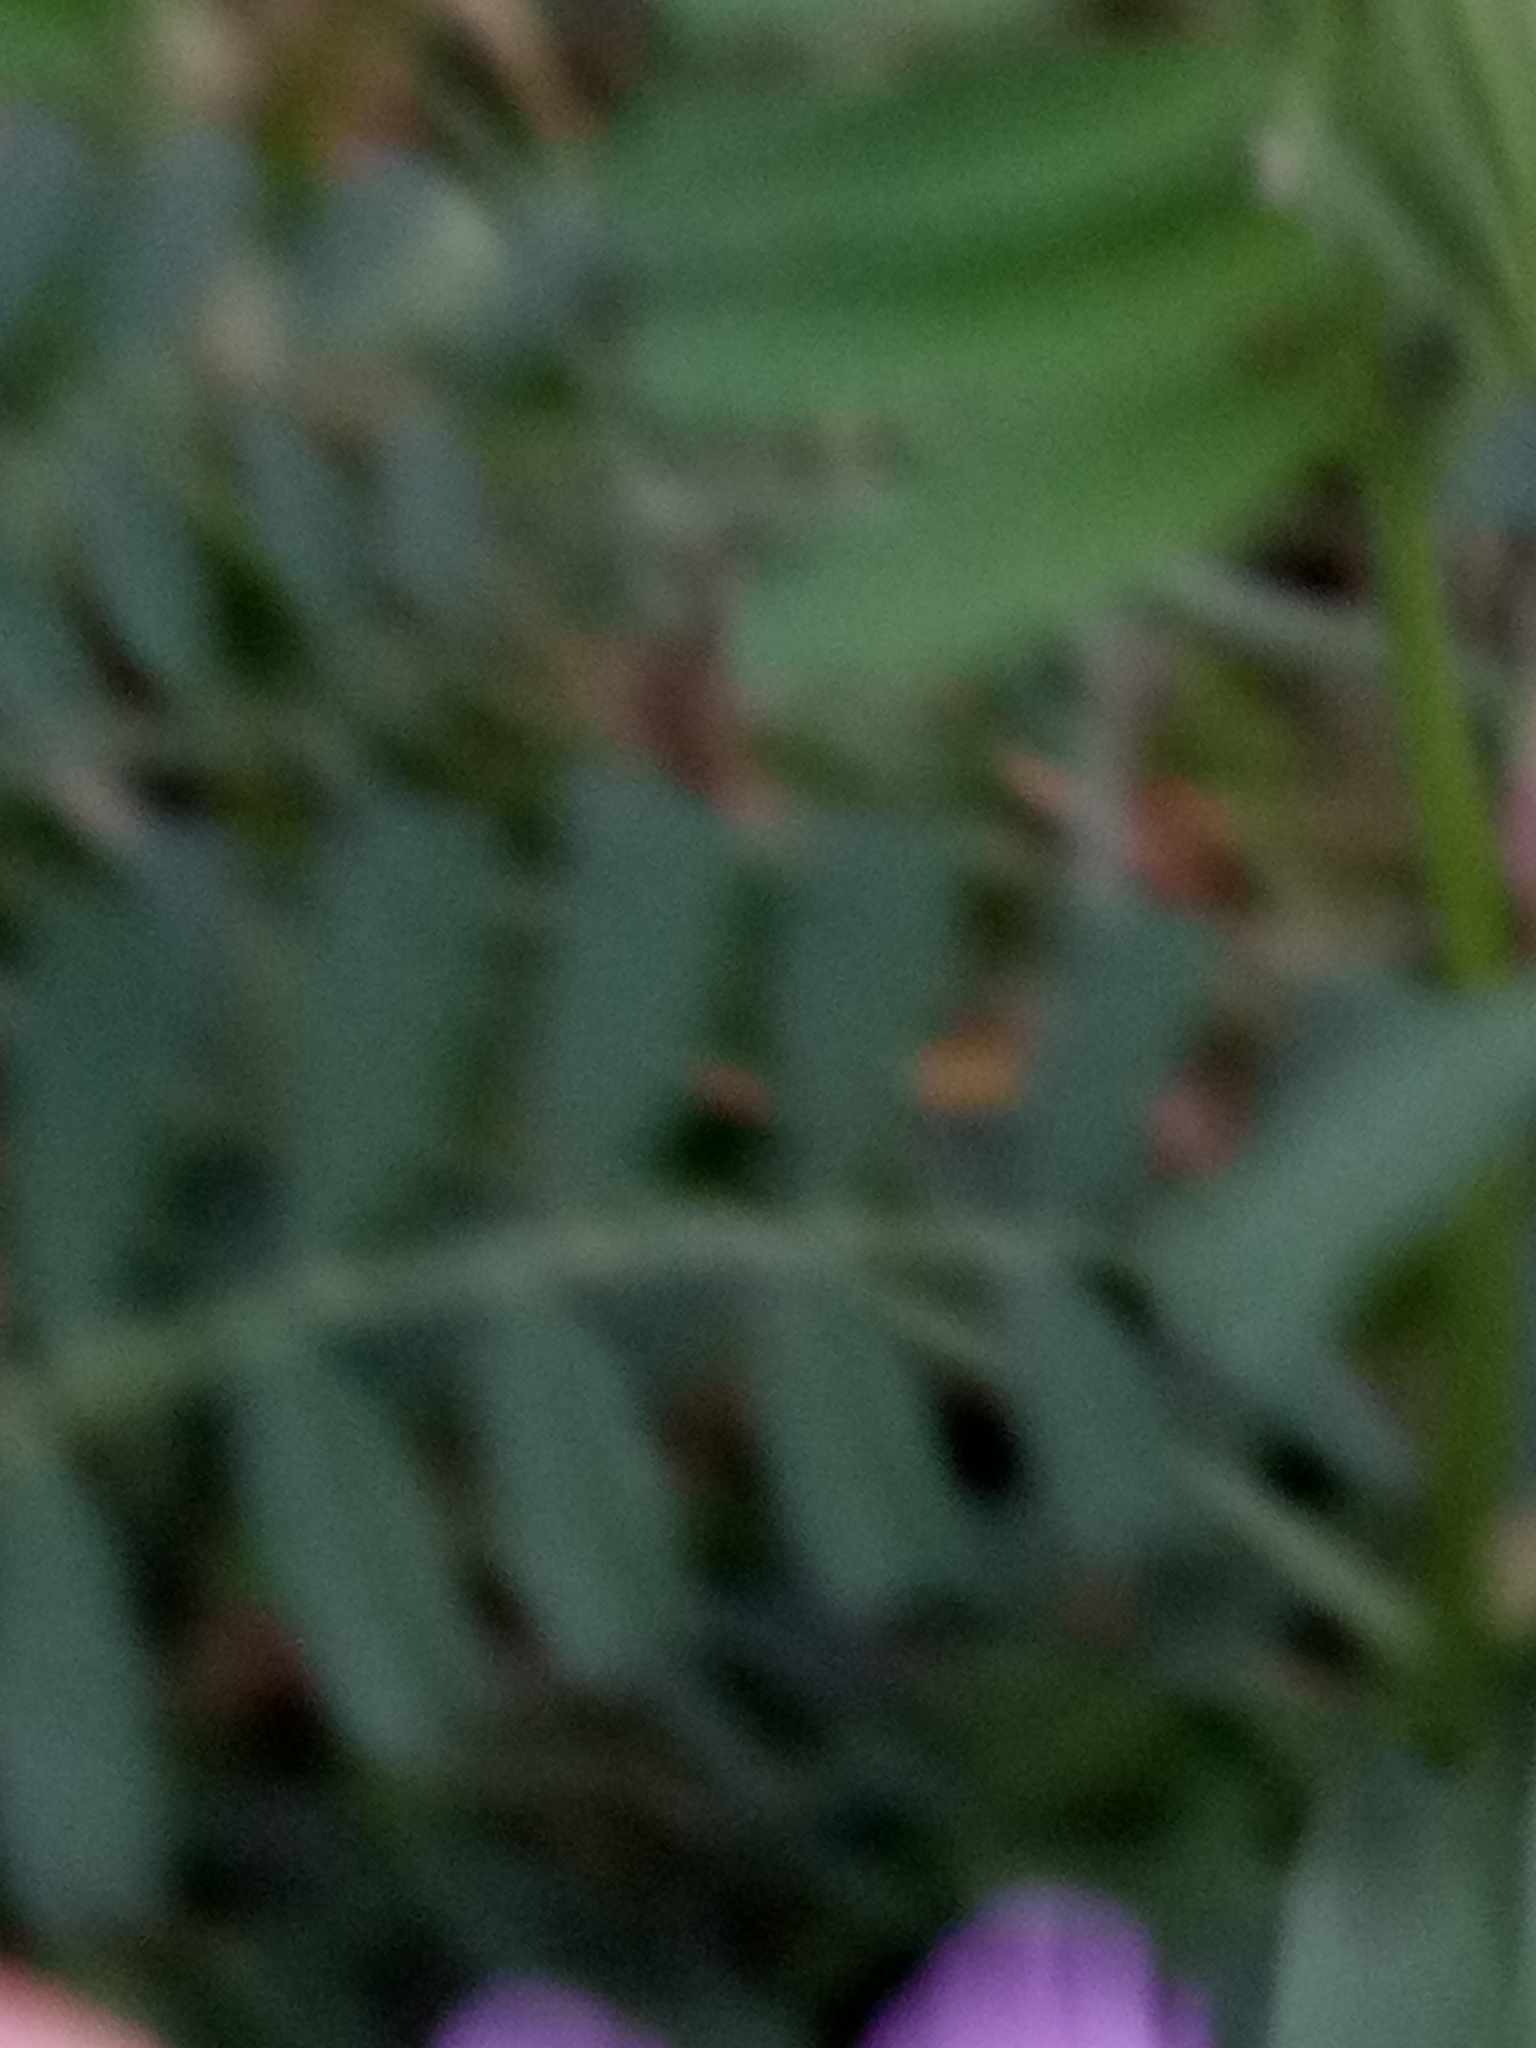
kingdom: Plantae
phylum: Tracheophyta
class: Magnoliopsida
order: Fabales
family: Fabaceae
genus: Vicia
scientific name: Vicia sativa
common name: Garden vetch
